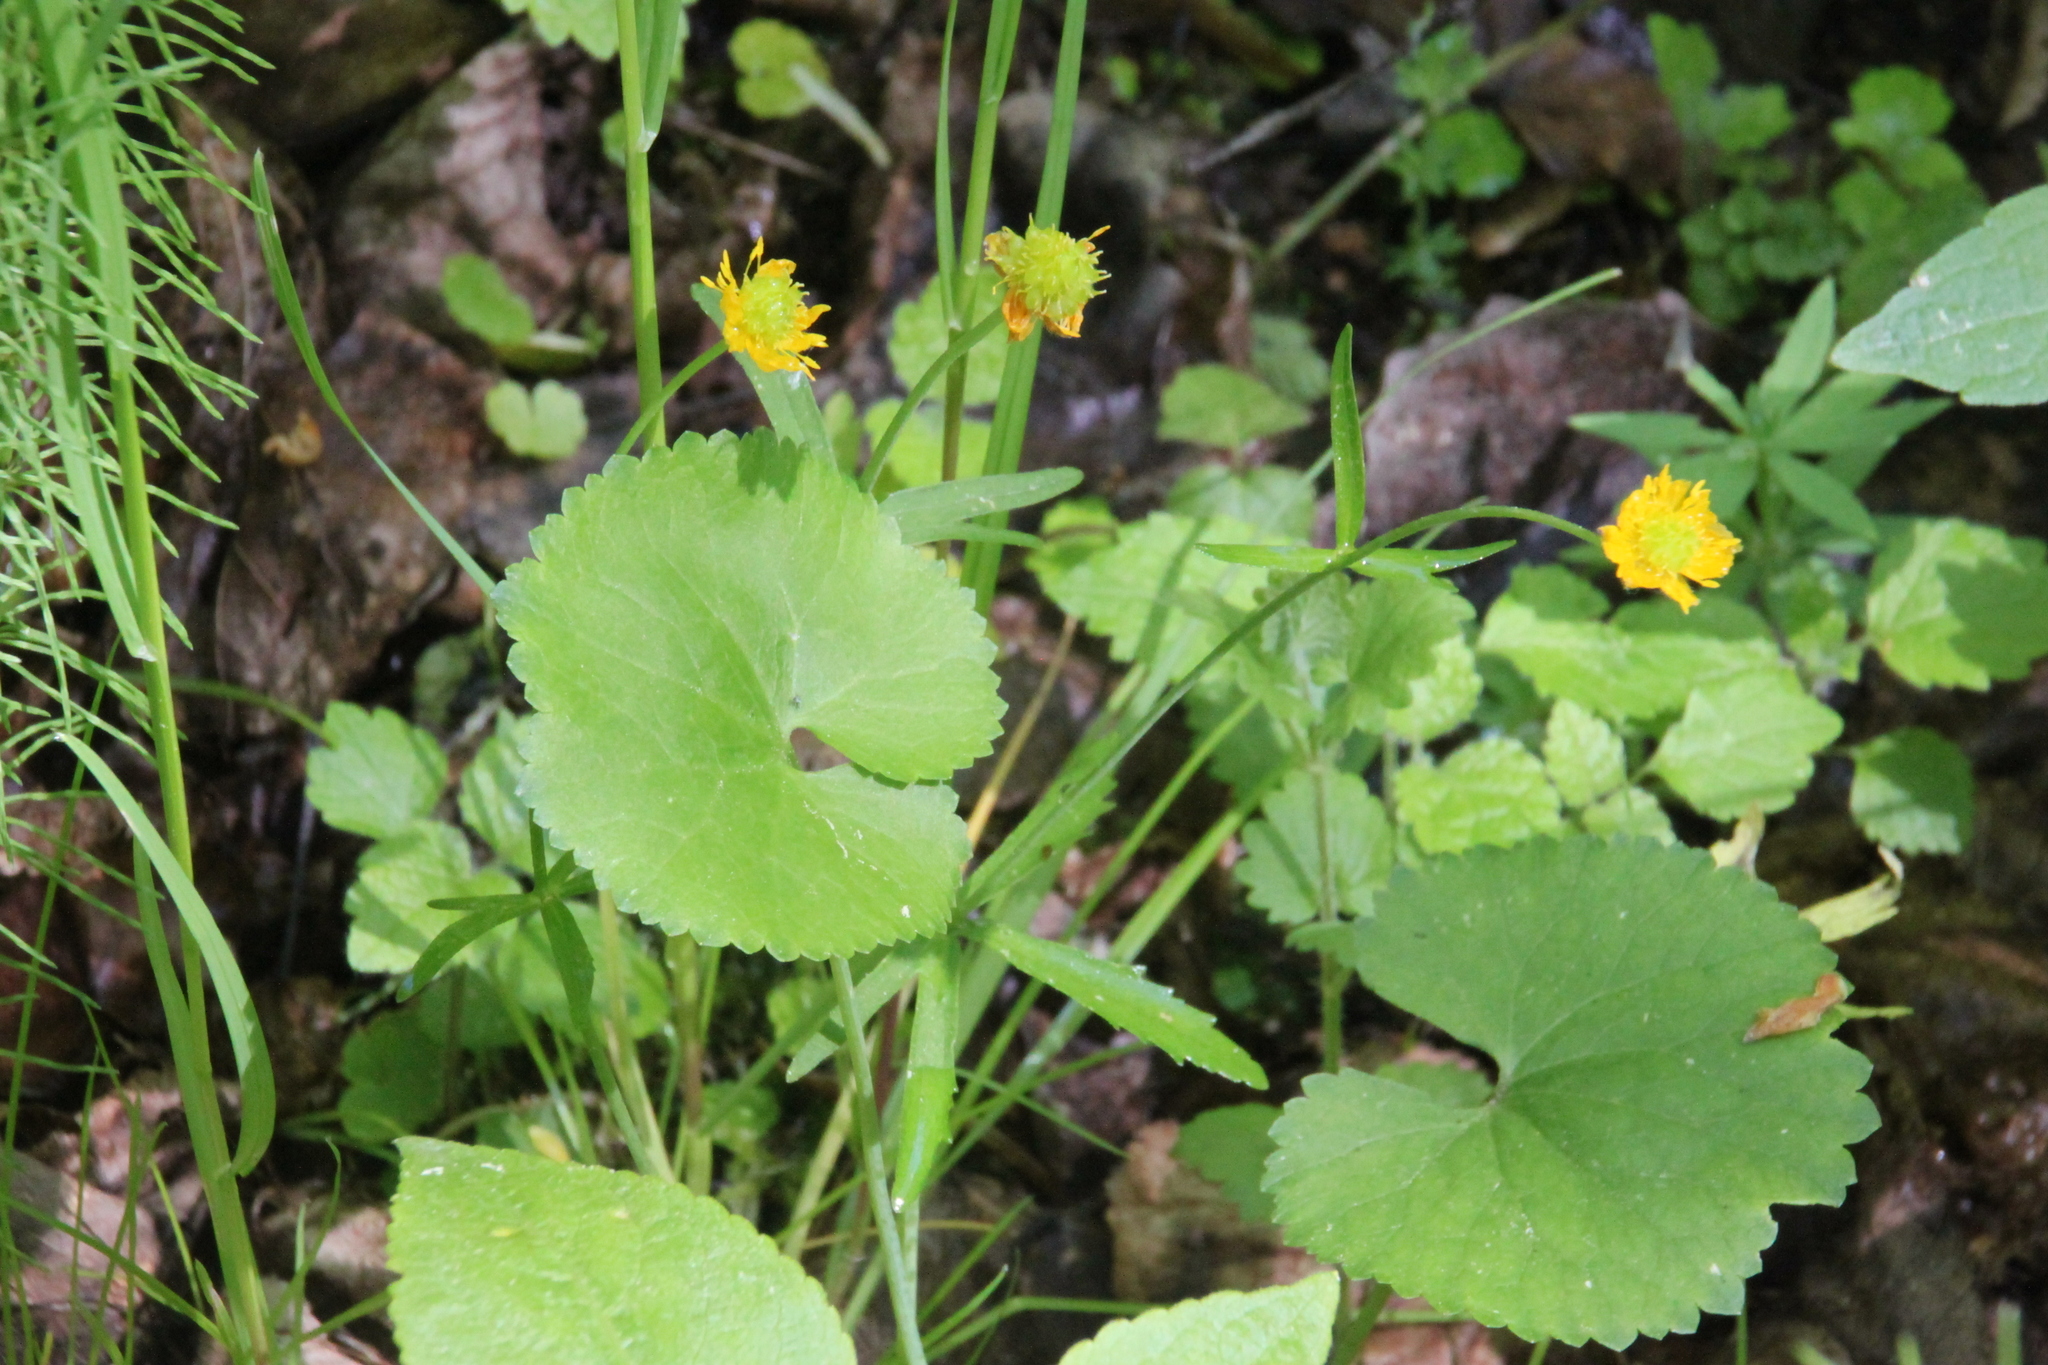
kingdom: Plantae
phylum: Tracheophyta
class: Magnoliopsida
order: Ranunculales
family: Ranunculaceae
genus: Ranunculus
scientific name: Ranunculus cassubicus
